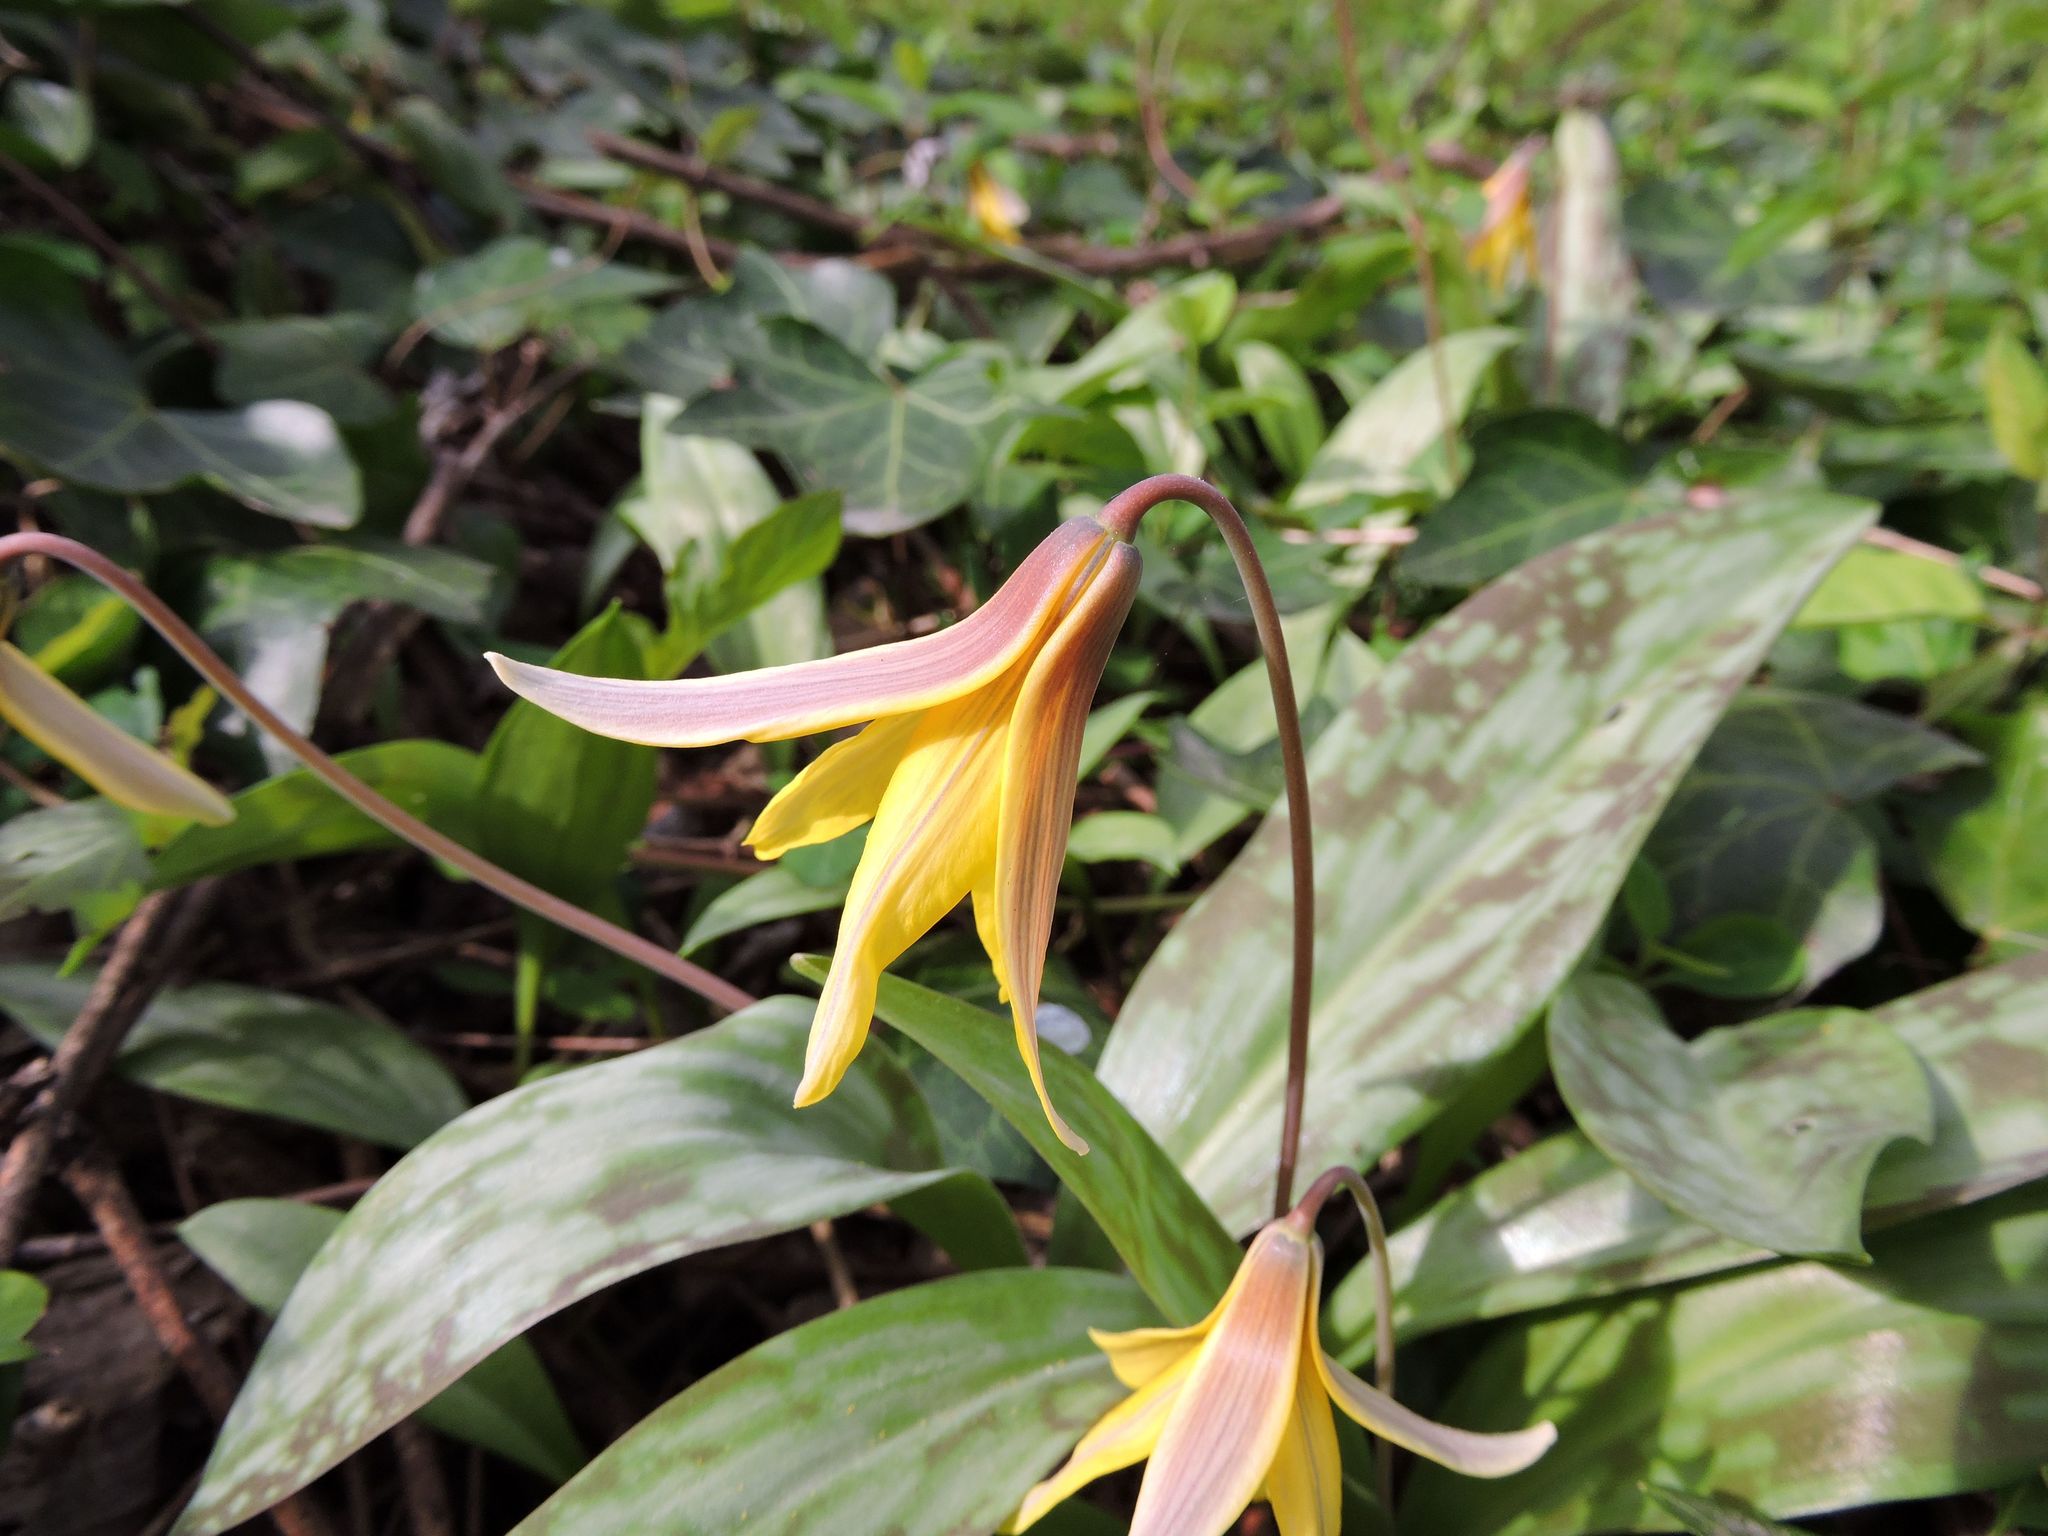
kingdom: Plantae
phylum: Tracheophyta
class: Liliopsida
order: Liliales
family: Liliaceae
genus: Erythronium
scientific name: Erythronium americanum
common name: Yellow adder's-tongue
